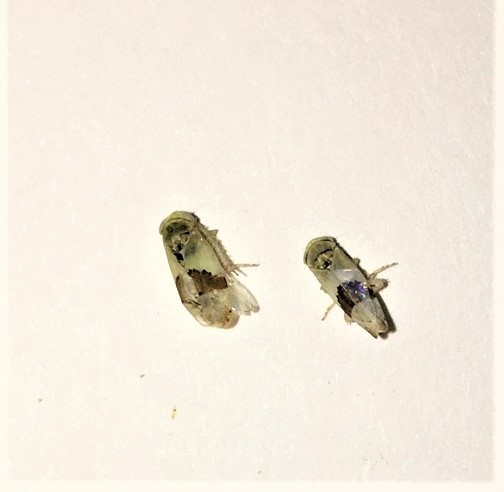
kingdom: Animalia
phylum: Arthropoda
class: Insecta
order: Hemiptera
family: Cicadellidae
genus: Norvellina
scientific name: Norvellina seminuda
